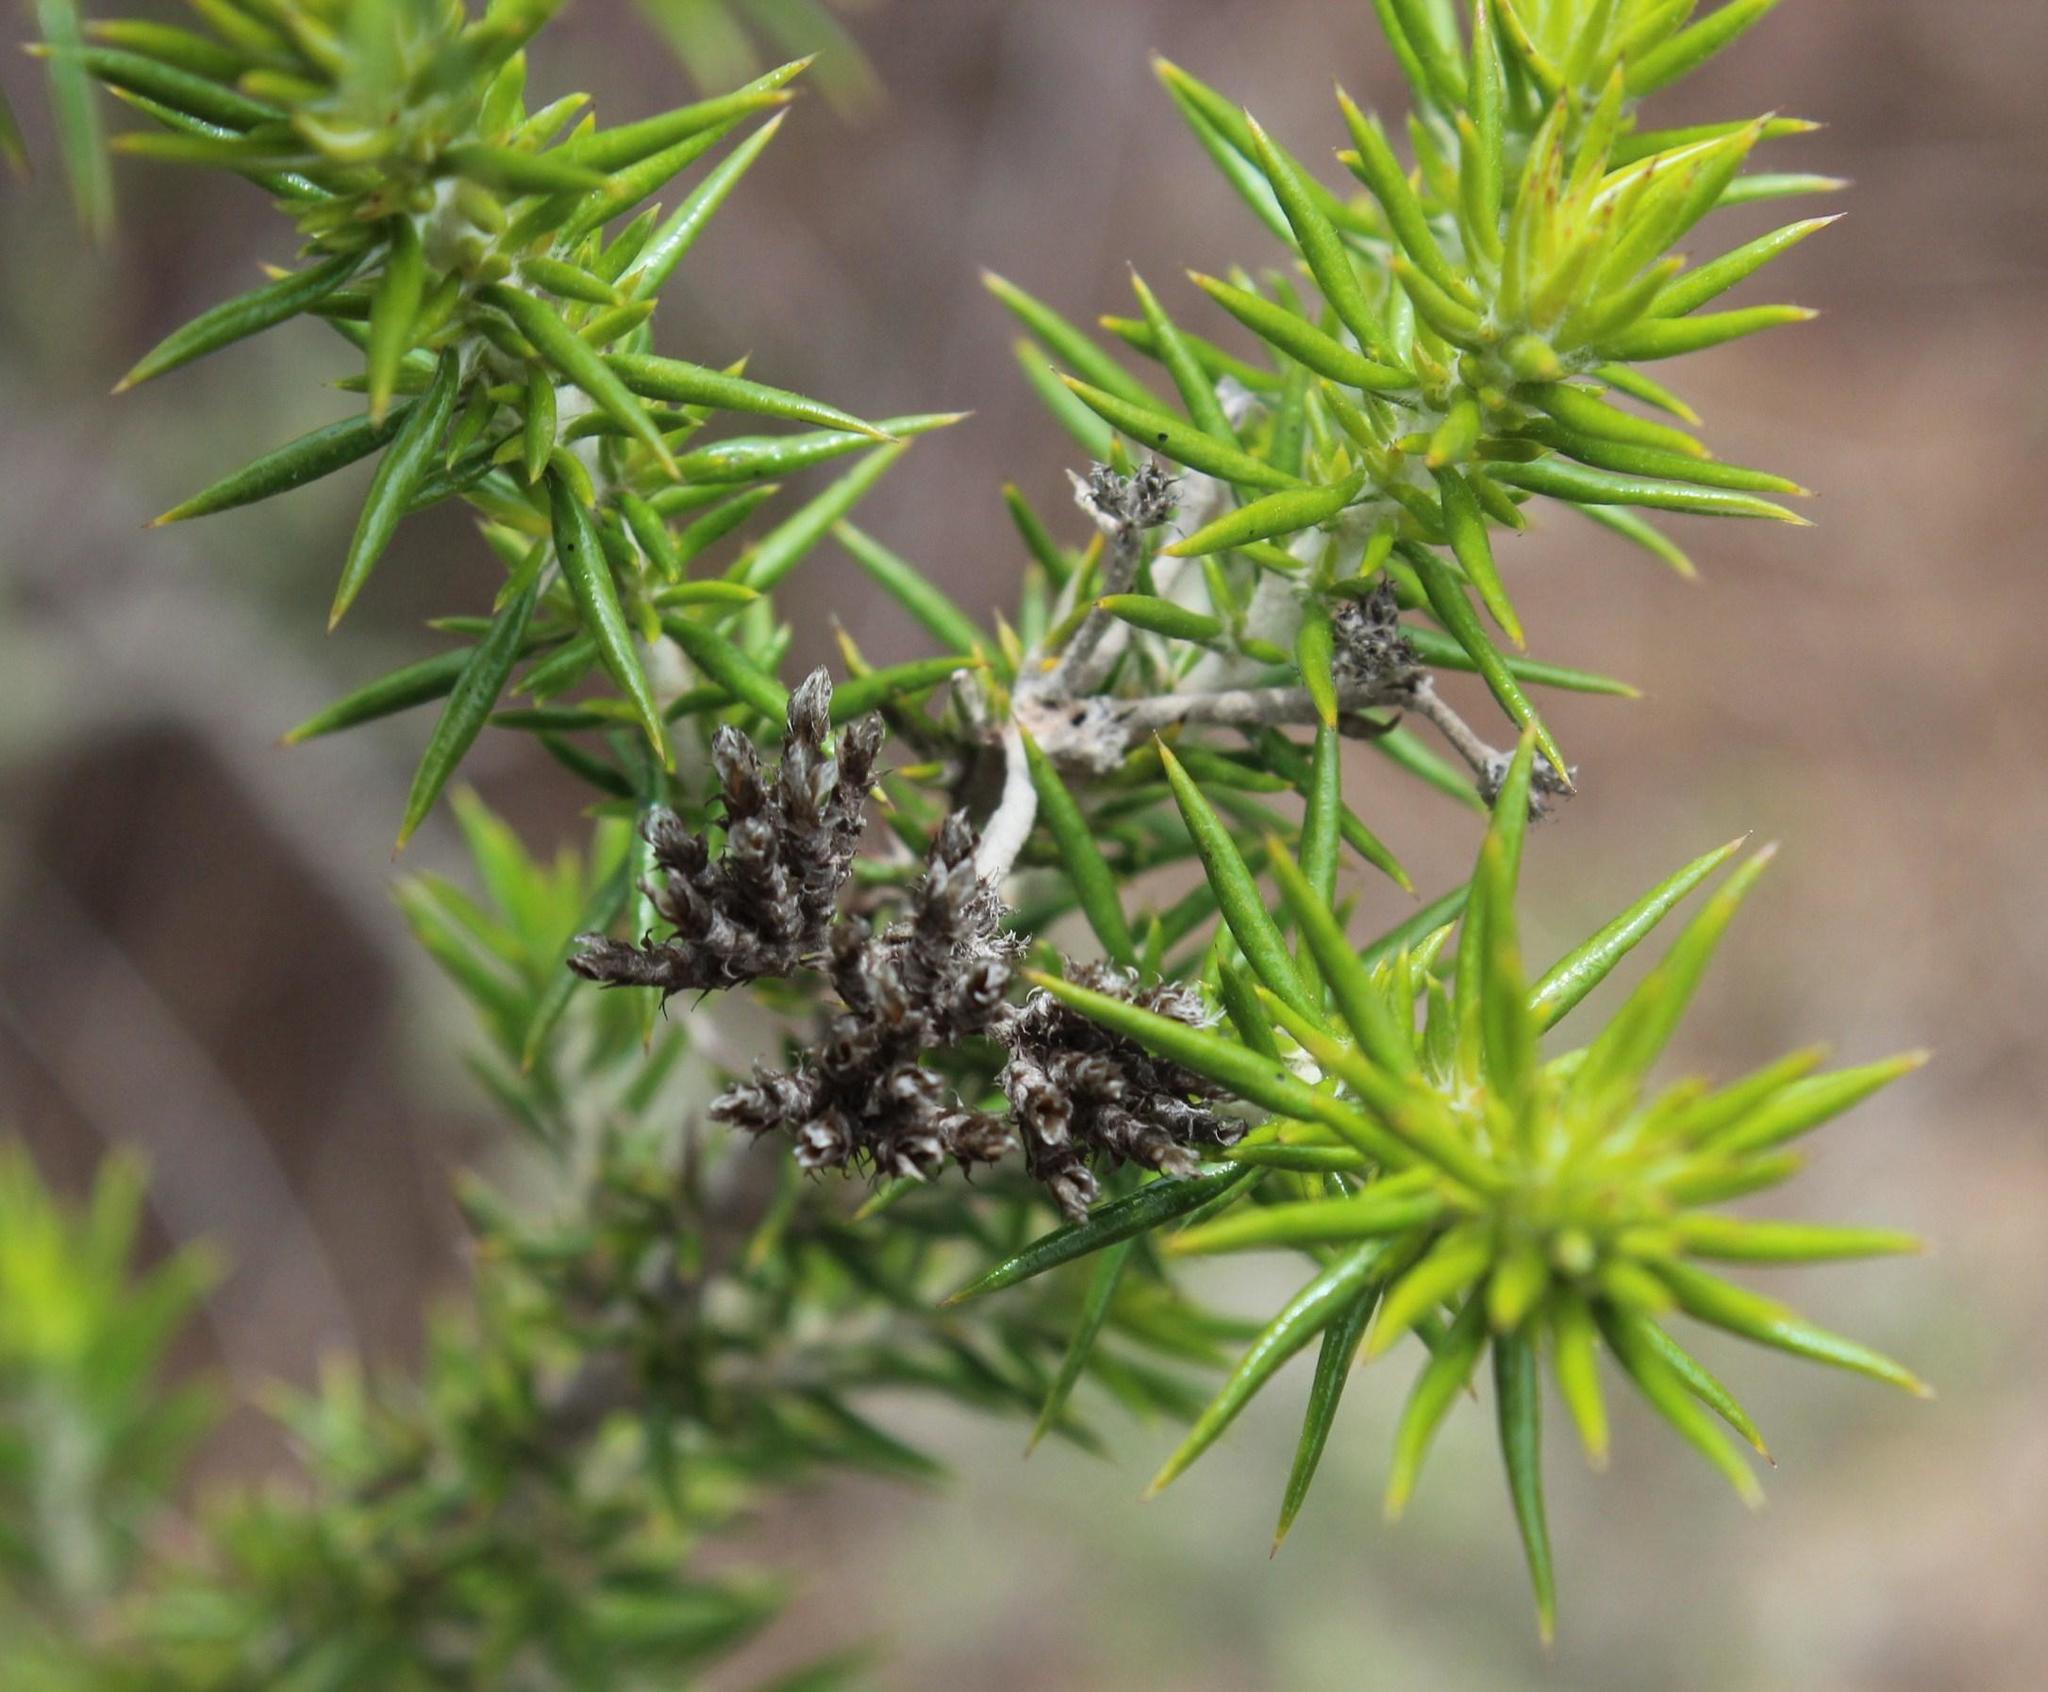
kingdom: Plantae
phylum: Tracheophyta
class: Magnoliopsida
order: Asterales
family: Asteraceae
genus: Metalasia
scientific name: Metalasia dregeana
